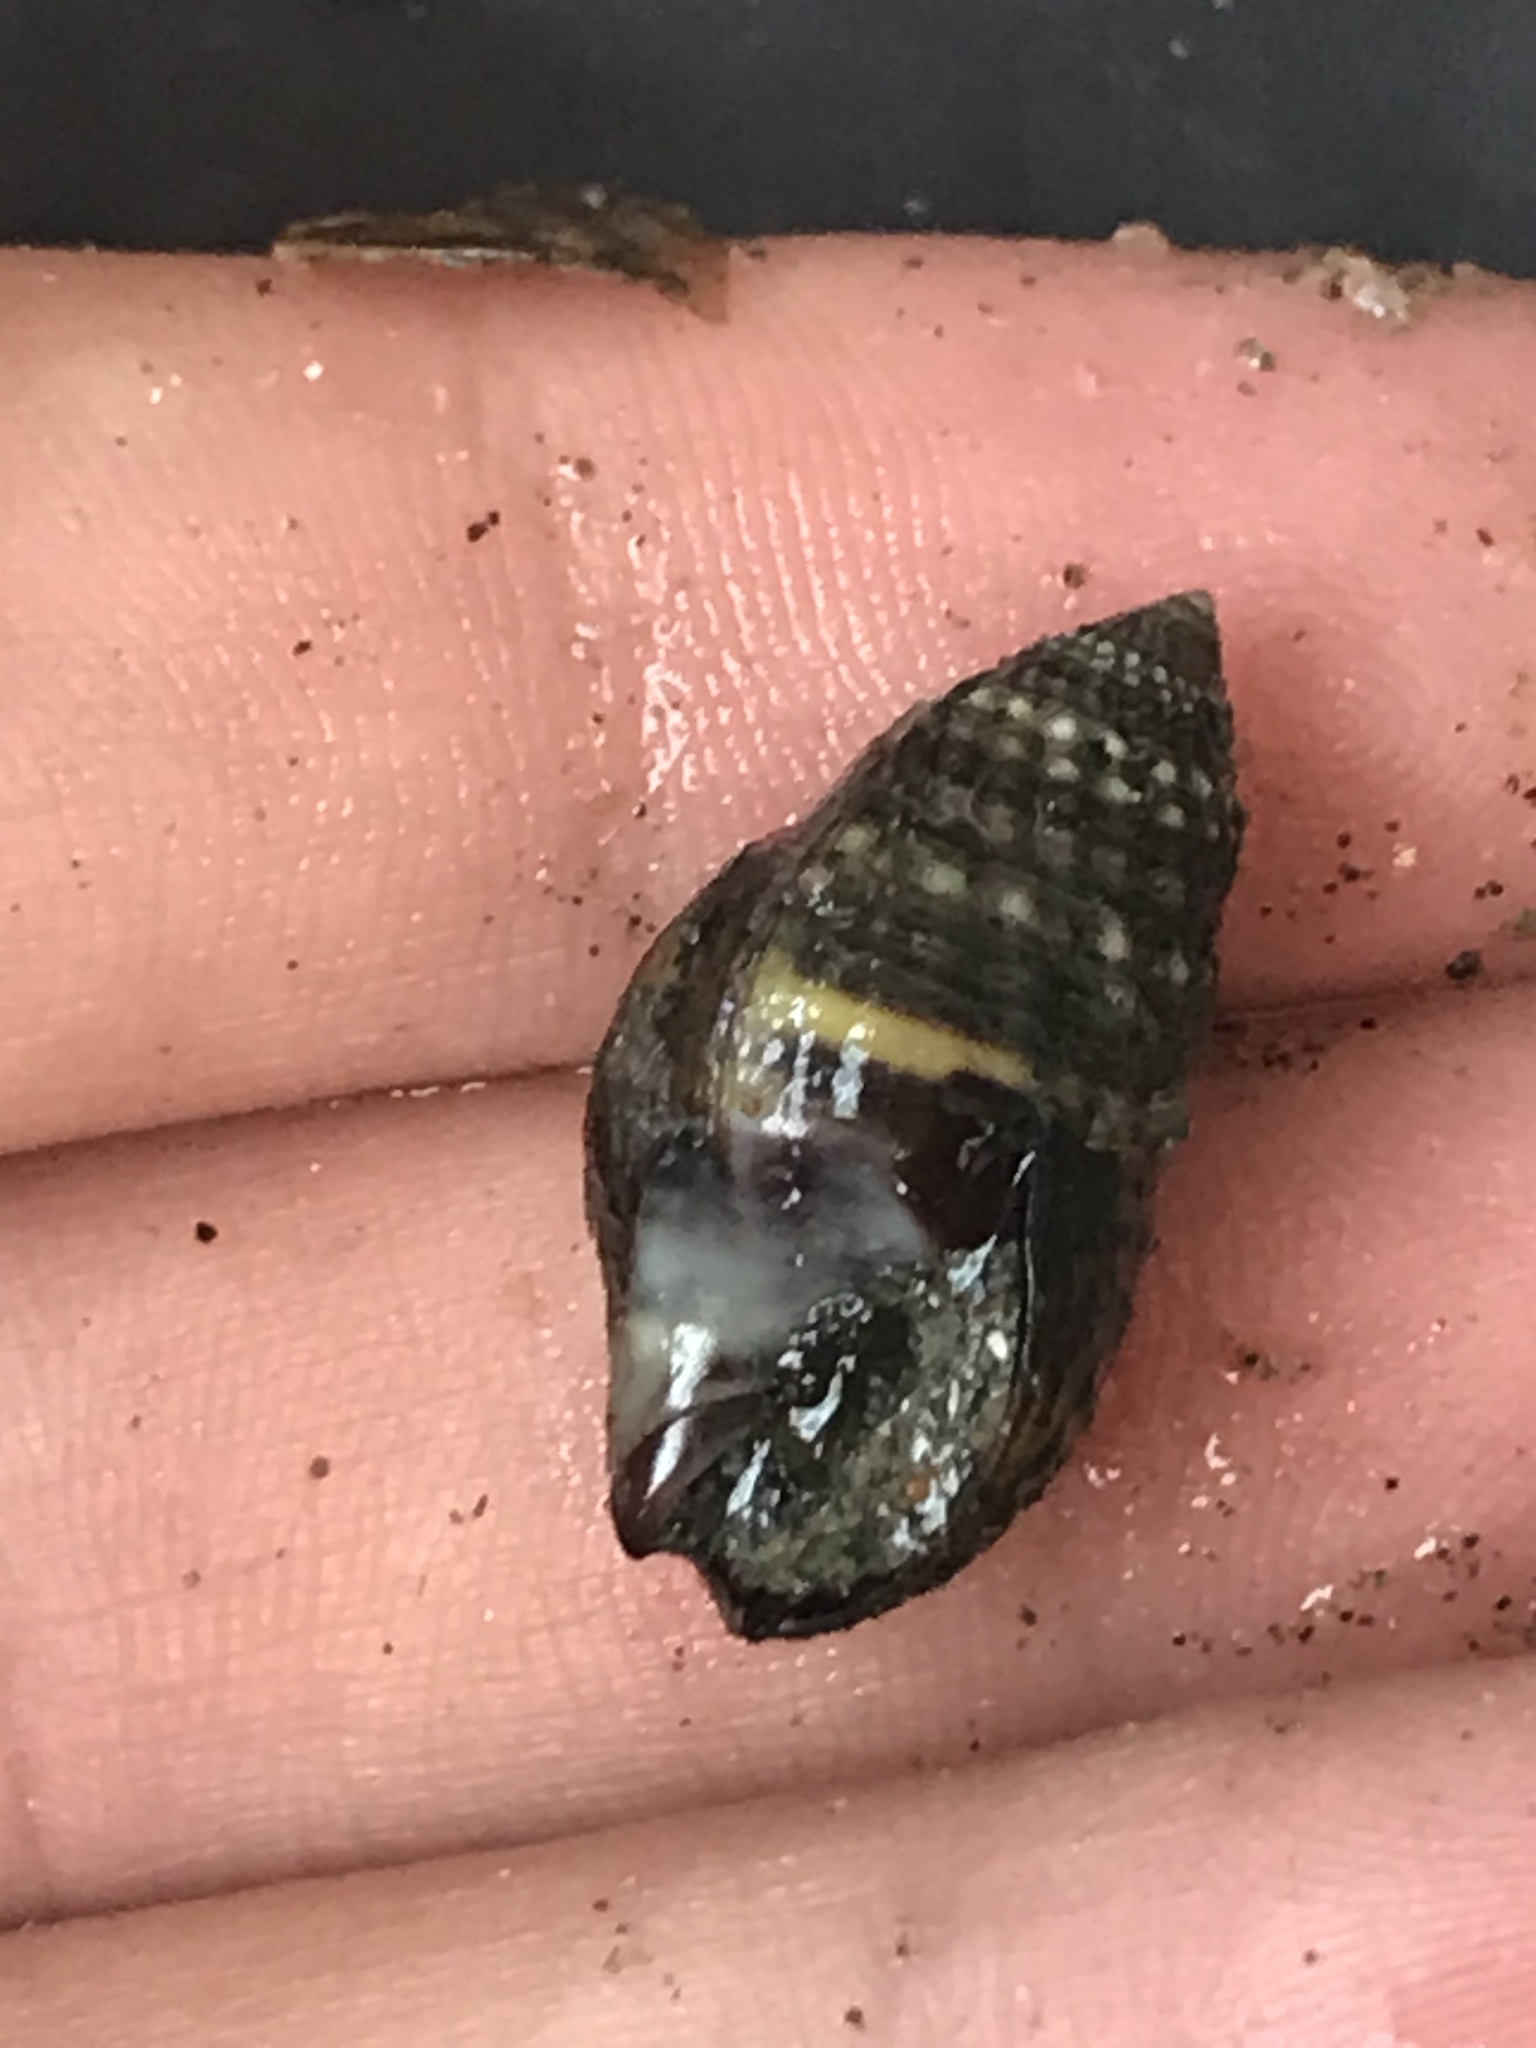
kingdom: Animalia
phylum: Mollusca
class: Gastropoda
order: Neogastropoda
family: Nassariidae
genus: Ilyanassa
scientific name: Ilyanassa obsoleta
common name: Eastern mudsnail
